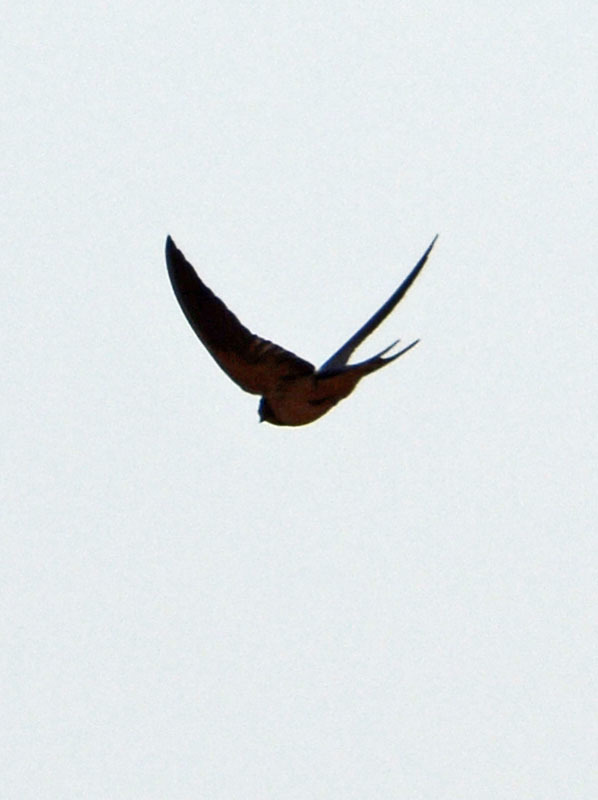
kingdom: Animalia
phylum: Chordata
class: Aves
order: Passeriformes
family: Hirundinidae
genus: Hirundo
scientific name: Hirundo rustica
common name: Barn swallow
